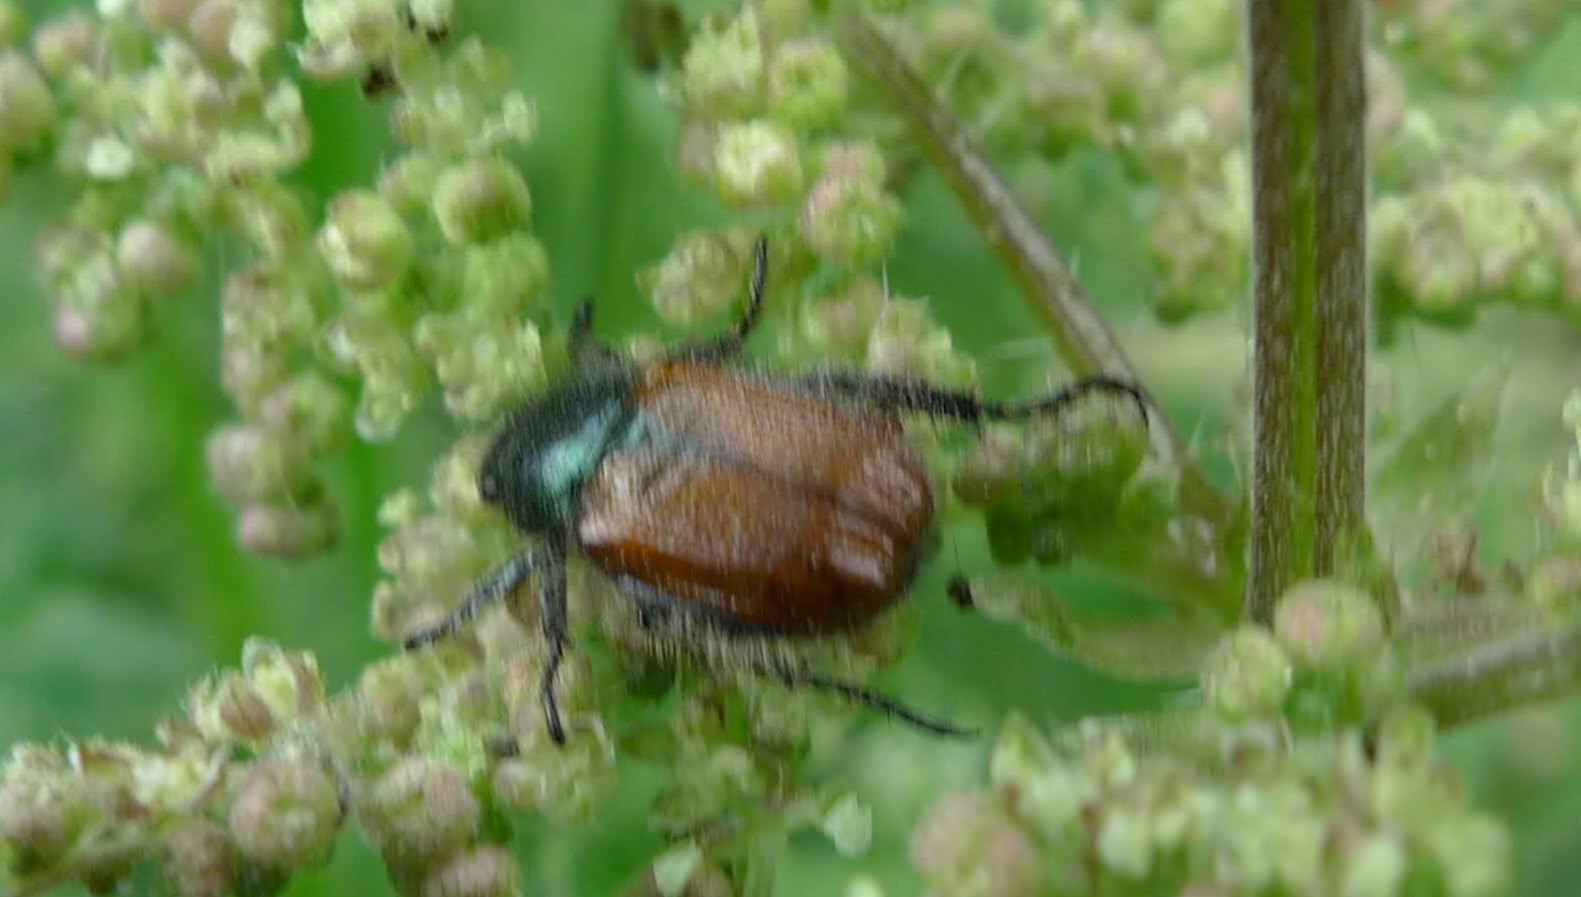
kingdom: Animalia
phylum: Arthropoda
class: Insecta
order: Coleoptera
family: Scarabaeidae
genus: Phyllopertha
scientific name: Phyllopertha horticola
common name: Garden chafer
